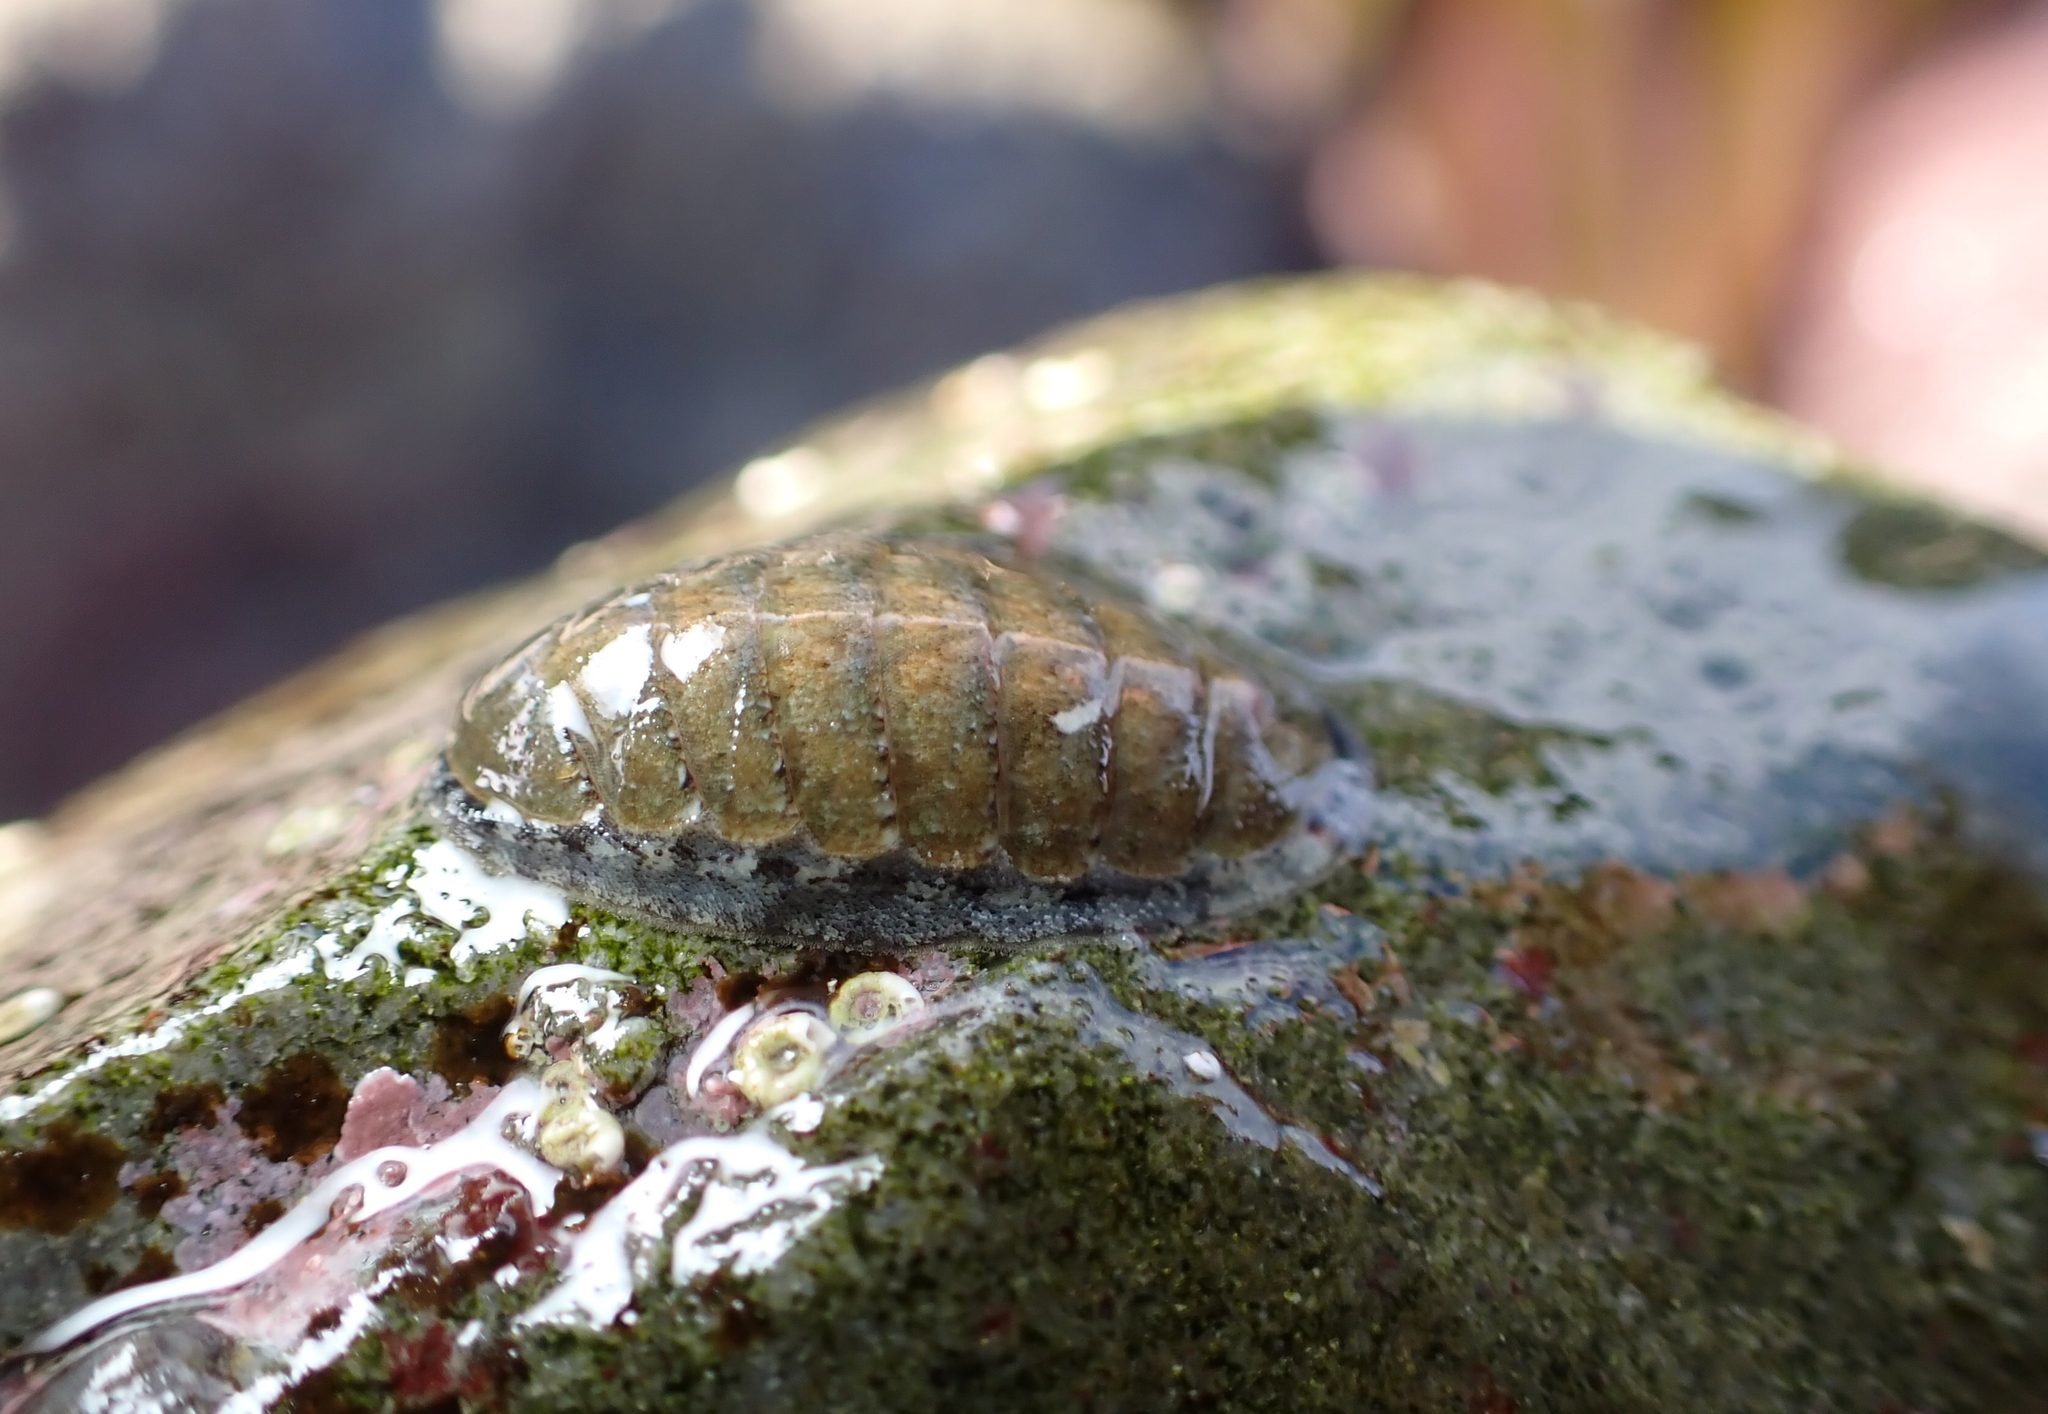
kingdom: Animalia
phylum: Mollusca
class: Polyplacophora
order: Chitonida
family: Ischnochitonidae
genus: Ischnochiton
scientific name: Ischnochiton maorianus
